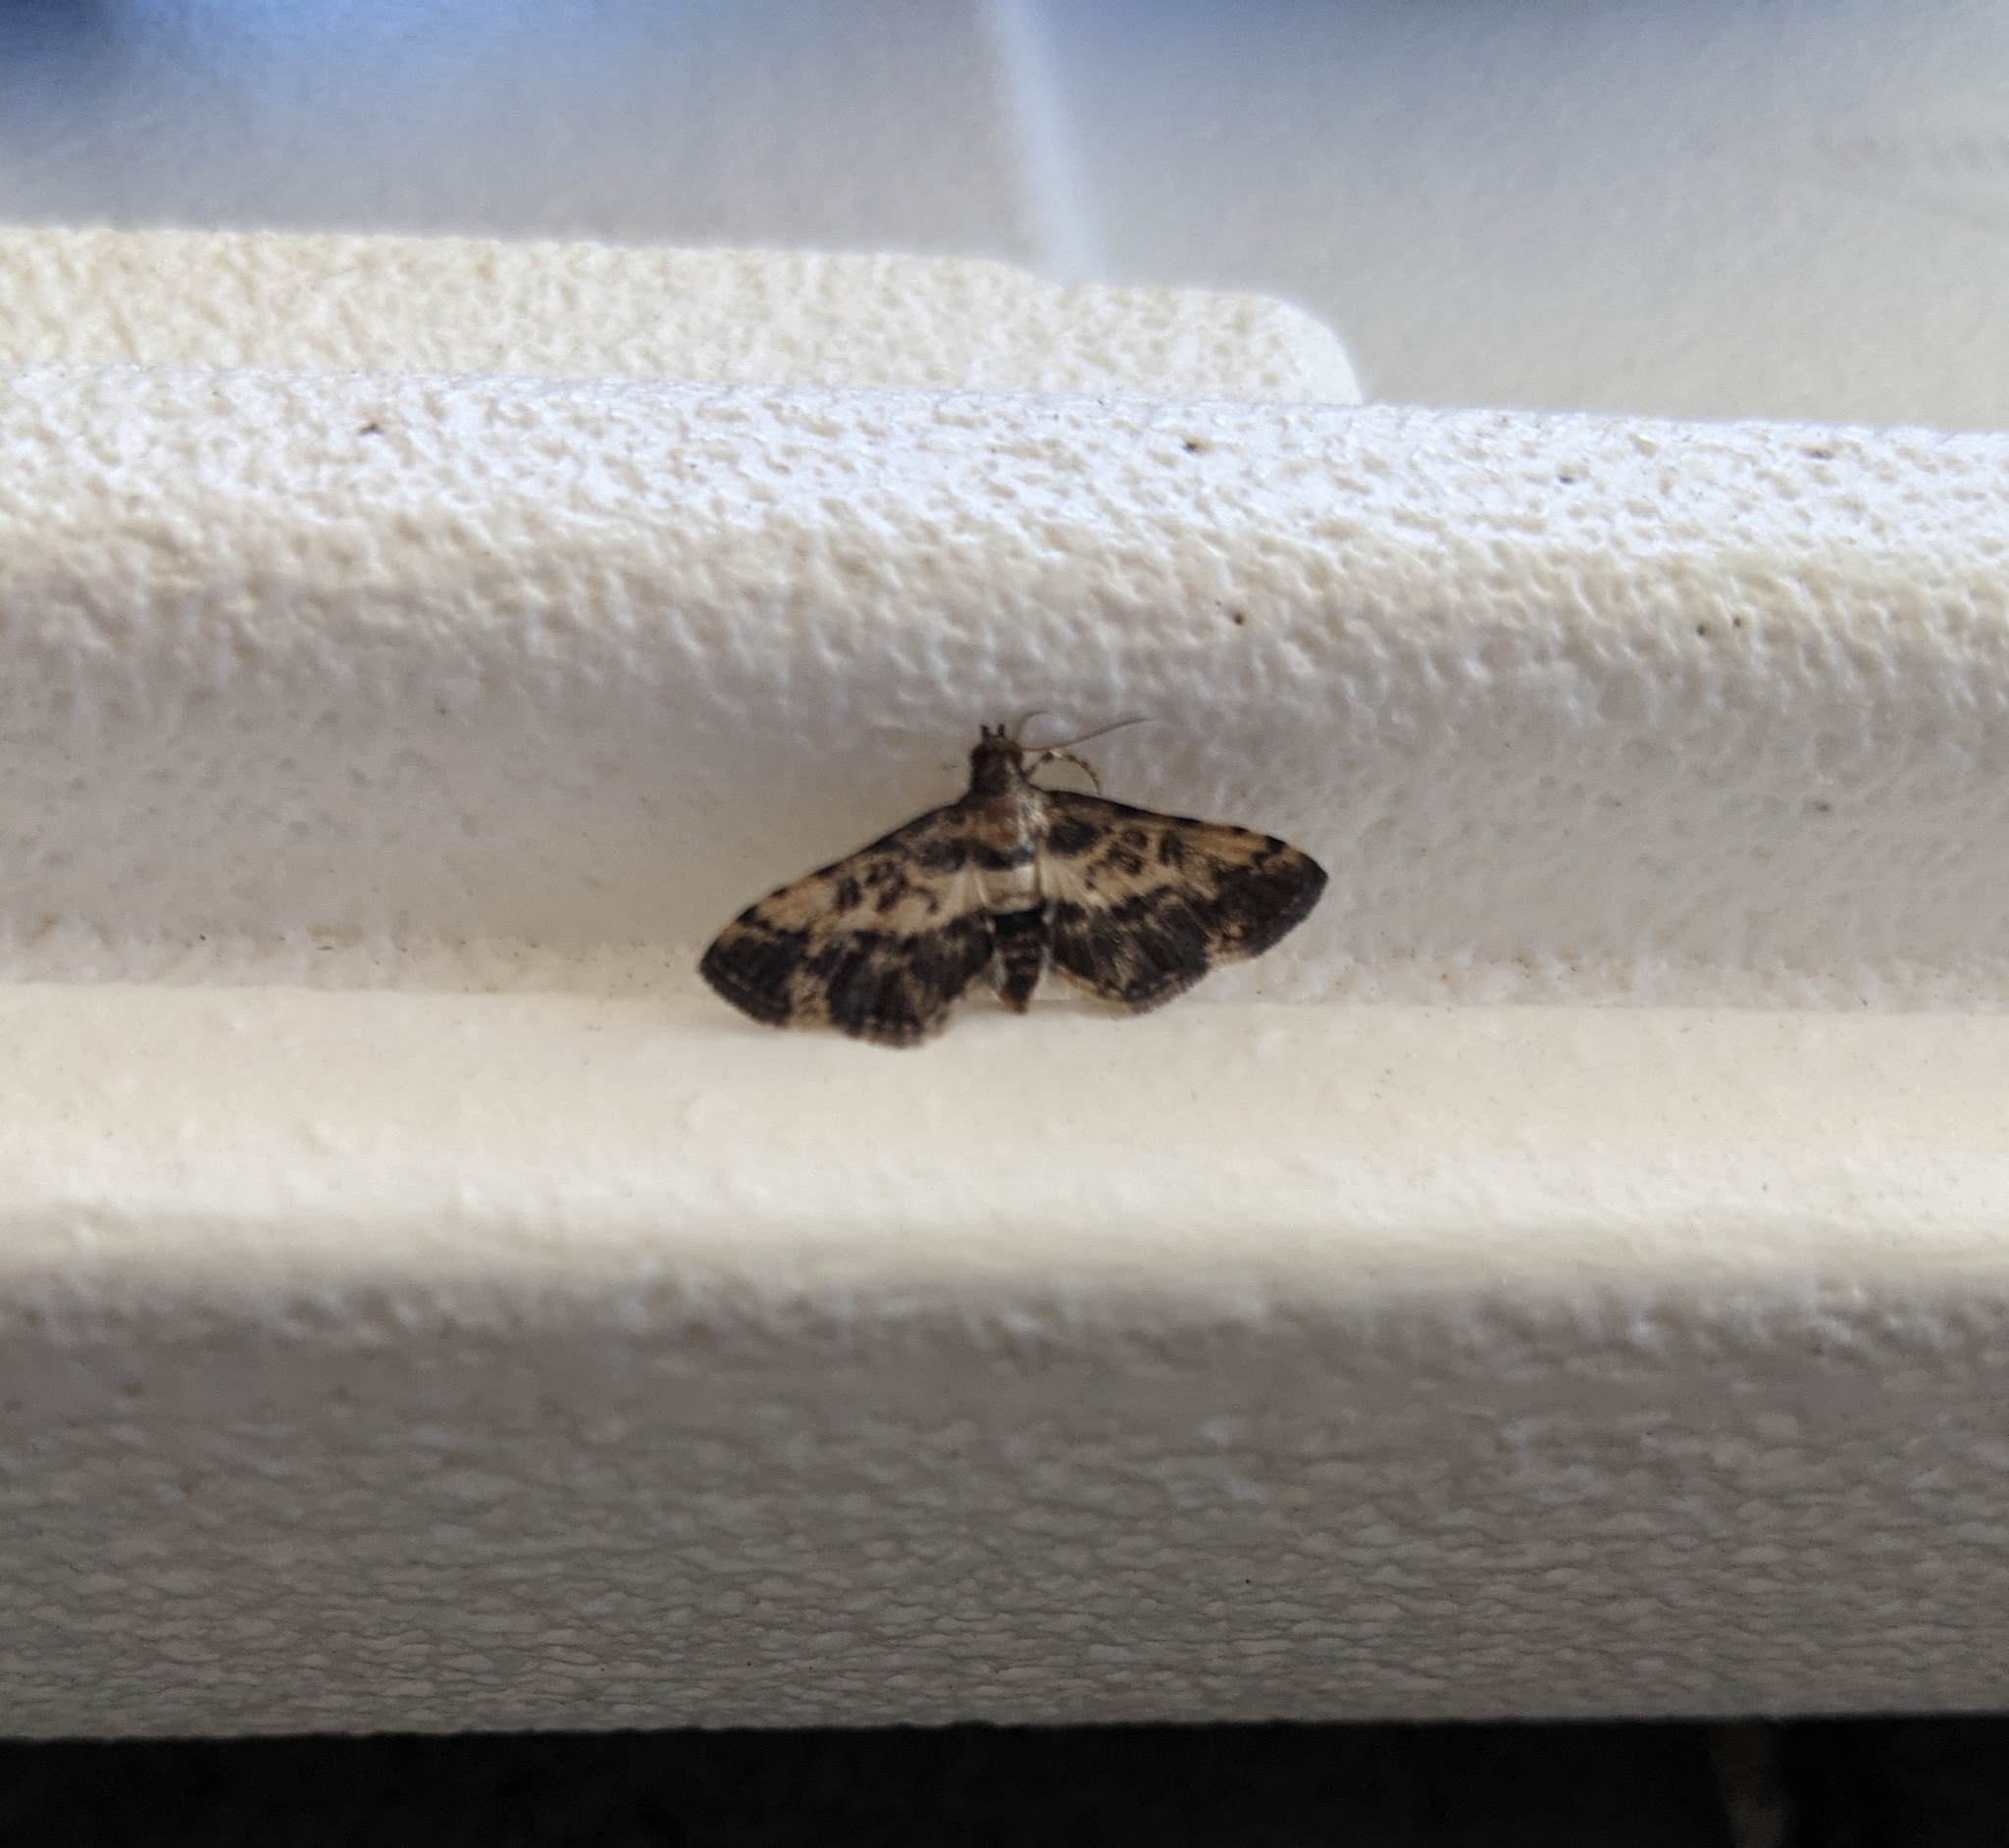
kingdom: Animalia
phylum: Arthropoda
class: Insecta
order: Lepidoptera
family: Crambidae
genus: Nacoleia
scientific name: Nacoleia amphicedalis
